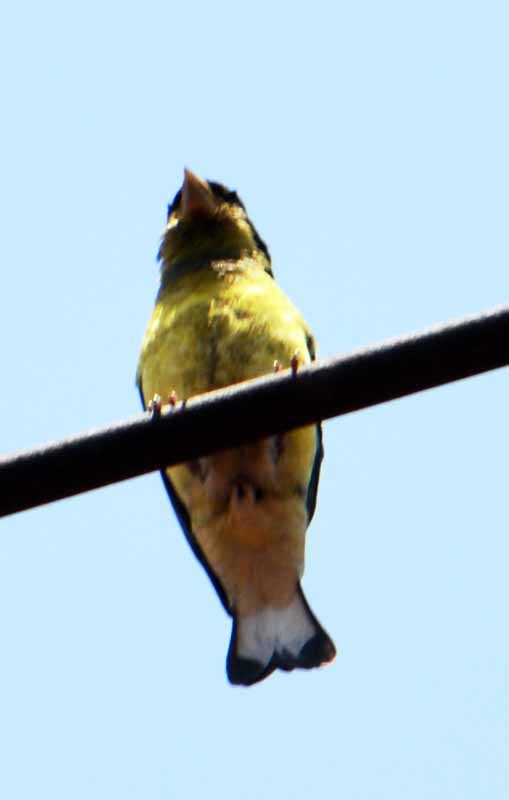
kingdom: Animalia
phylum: Chordata
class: Aves
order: Passeriformes
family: Fringillidae
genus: Spinus
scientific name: Spinus psaltria
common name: Lesser goldfinch
